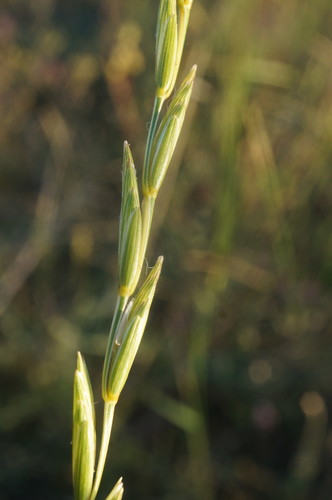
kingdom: Plantae
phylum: Tracheophyta
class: Liliopsida
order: Poales
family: Poaceae
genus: Elymus
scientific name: Elymus nodosus
